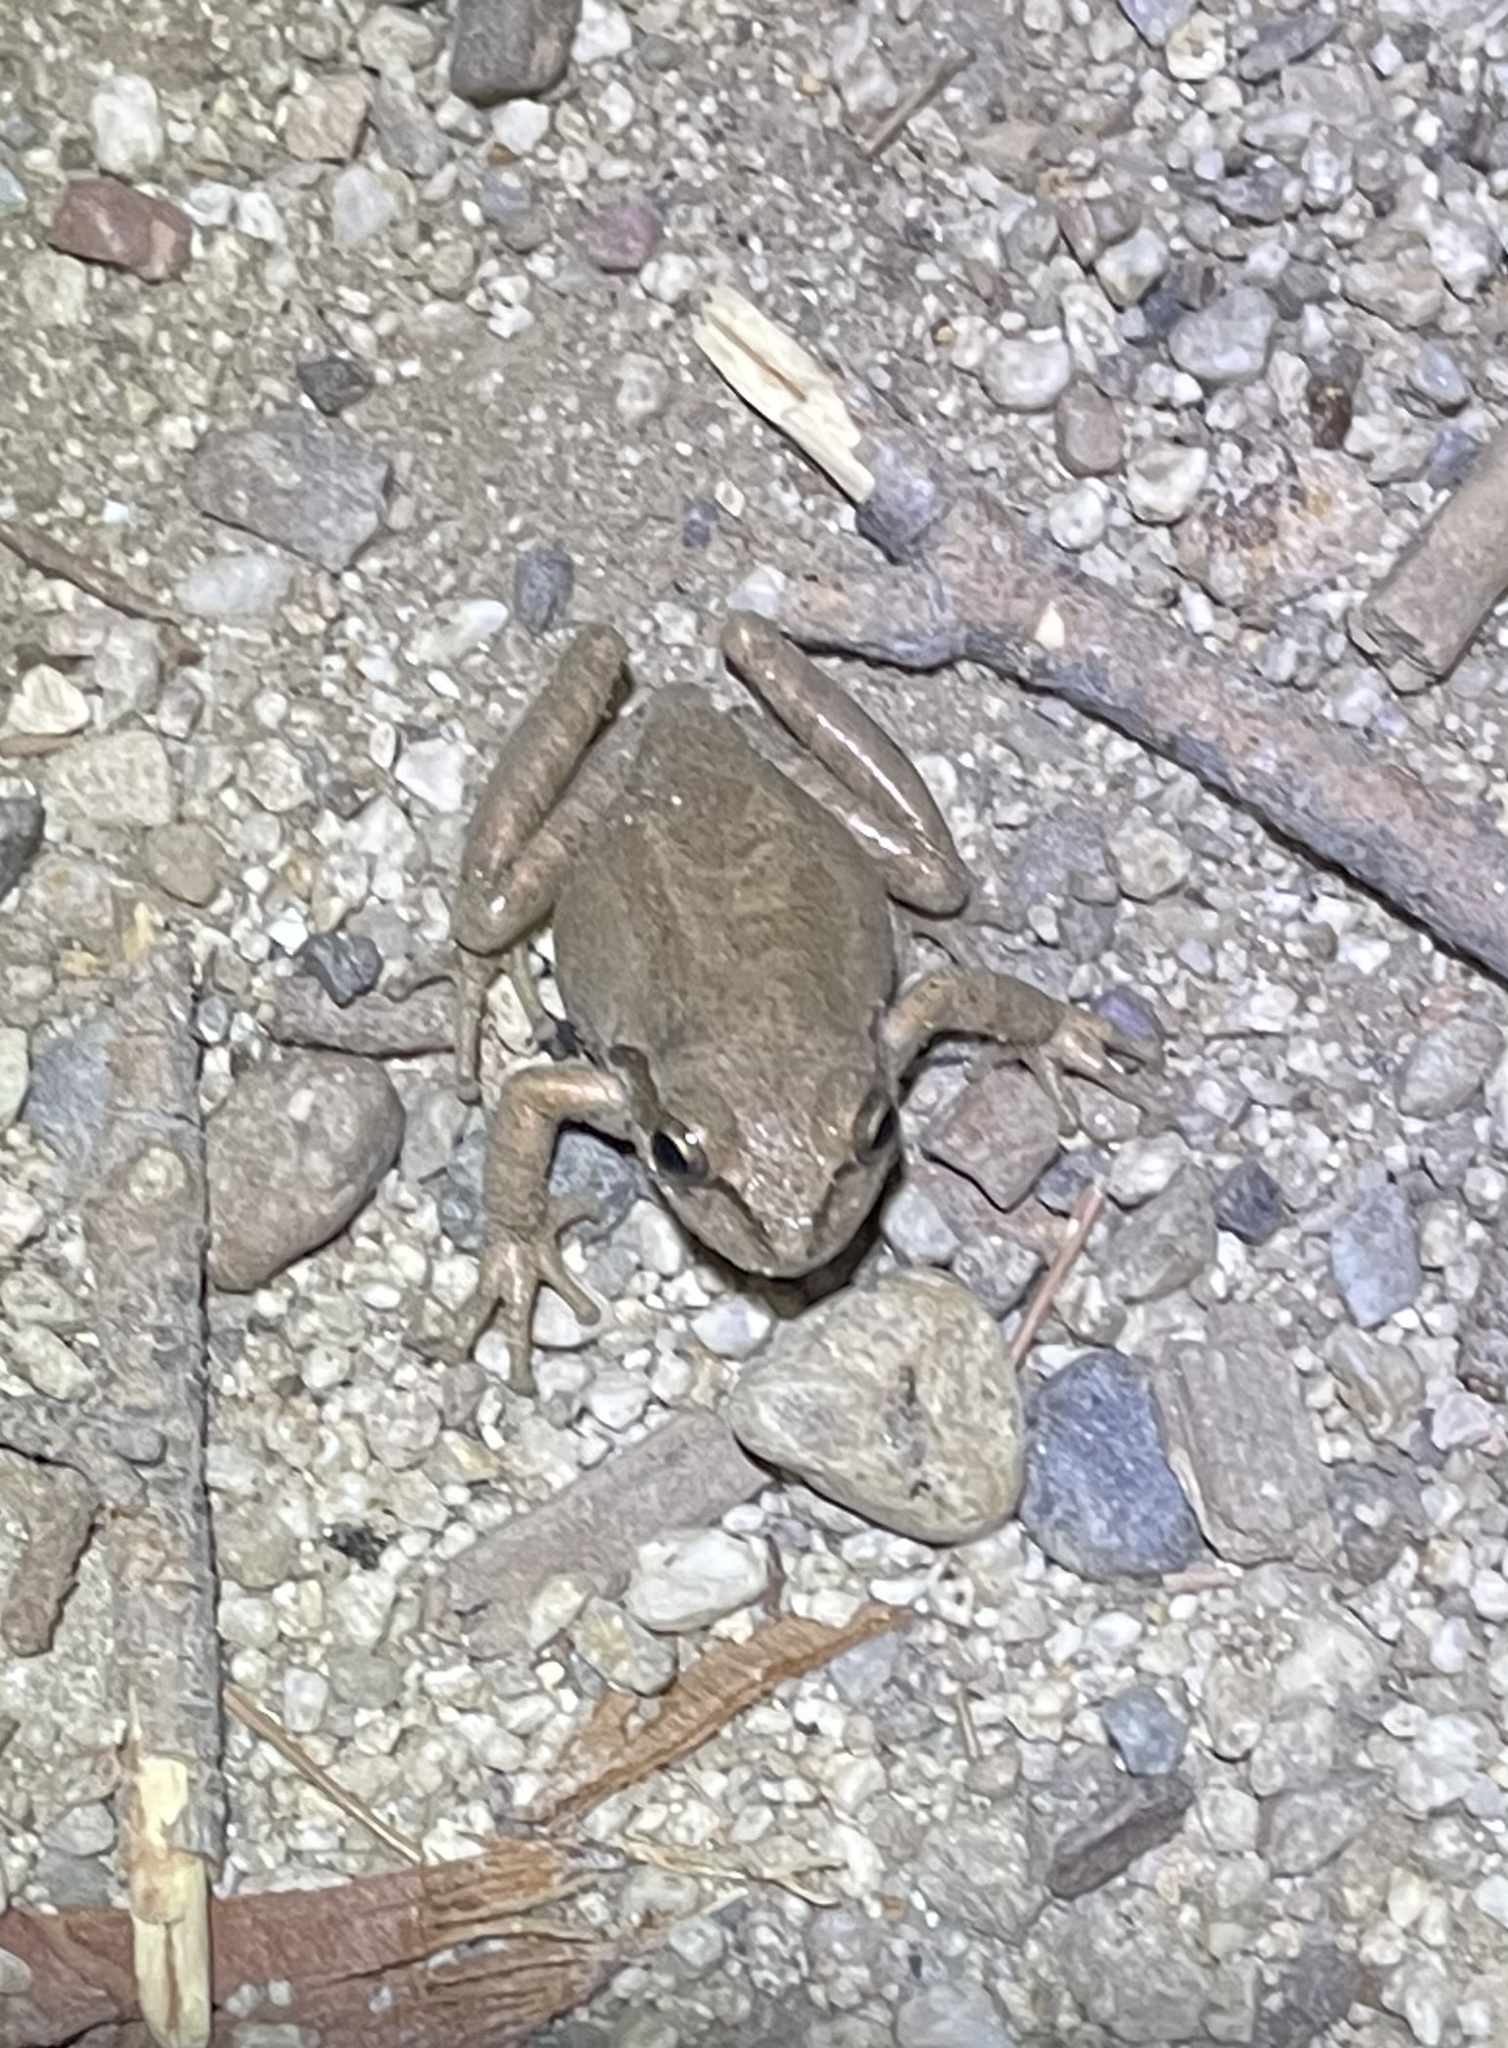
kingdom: Animalia
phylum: Chordata
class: Amphibia
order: Anura
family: Hylidae
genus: Pseudacris
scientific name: Pseudacris regilla
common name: Pacific chorus frog
